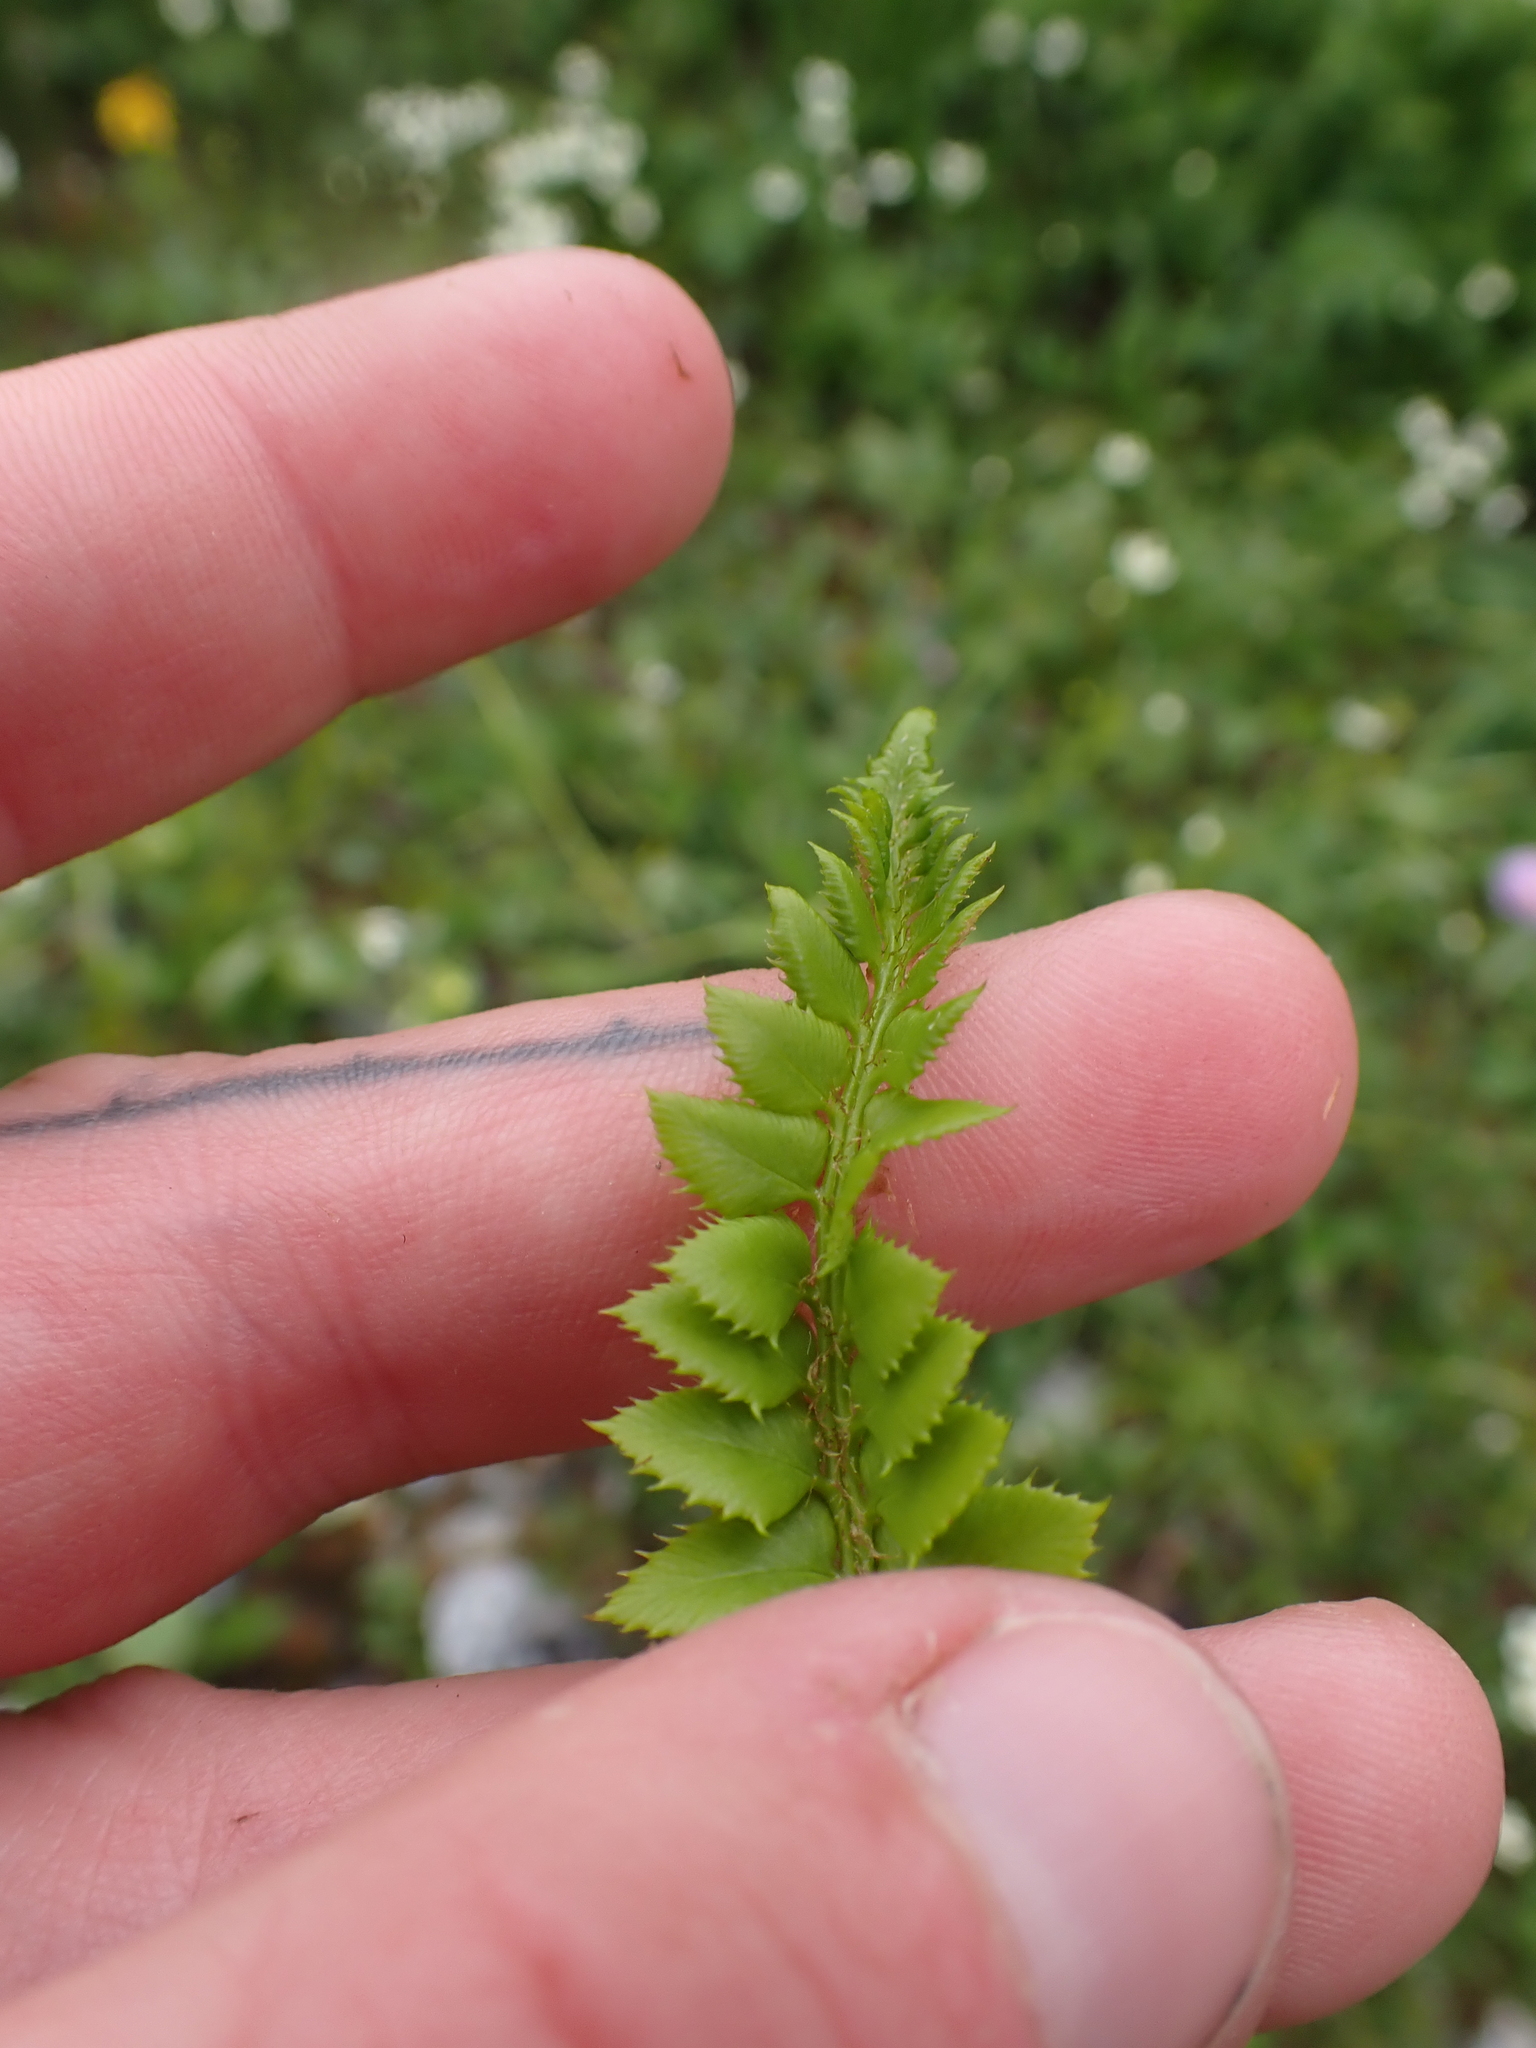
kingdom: Plantae
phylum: Tracheophyta
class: Polypodiopsida
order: Polypodiales
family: Dryopteridaceae
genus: Polystichum
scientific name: Polystichum lonchitis
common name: Holly fern
